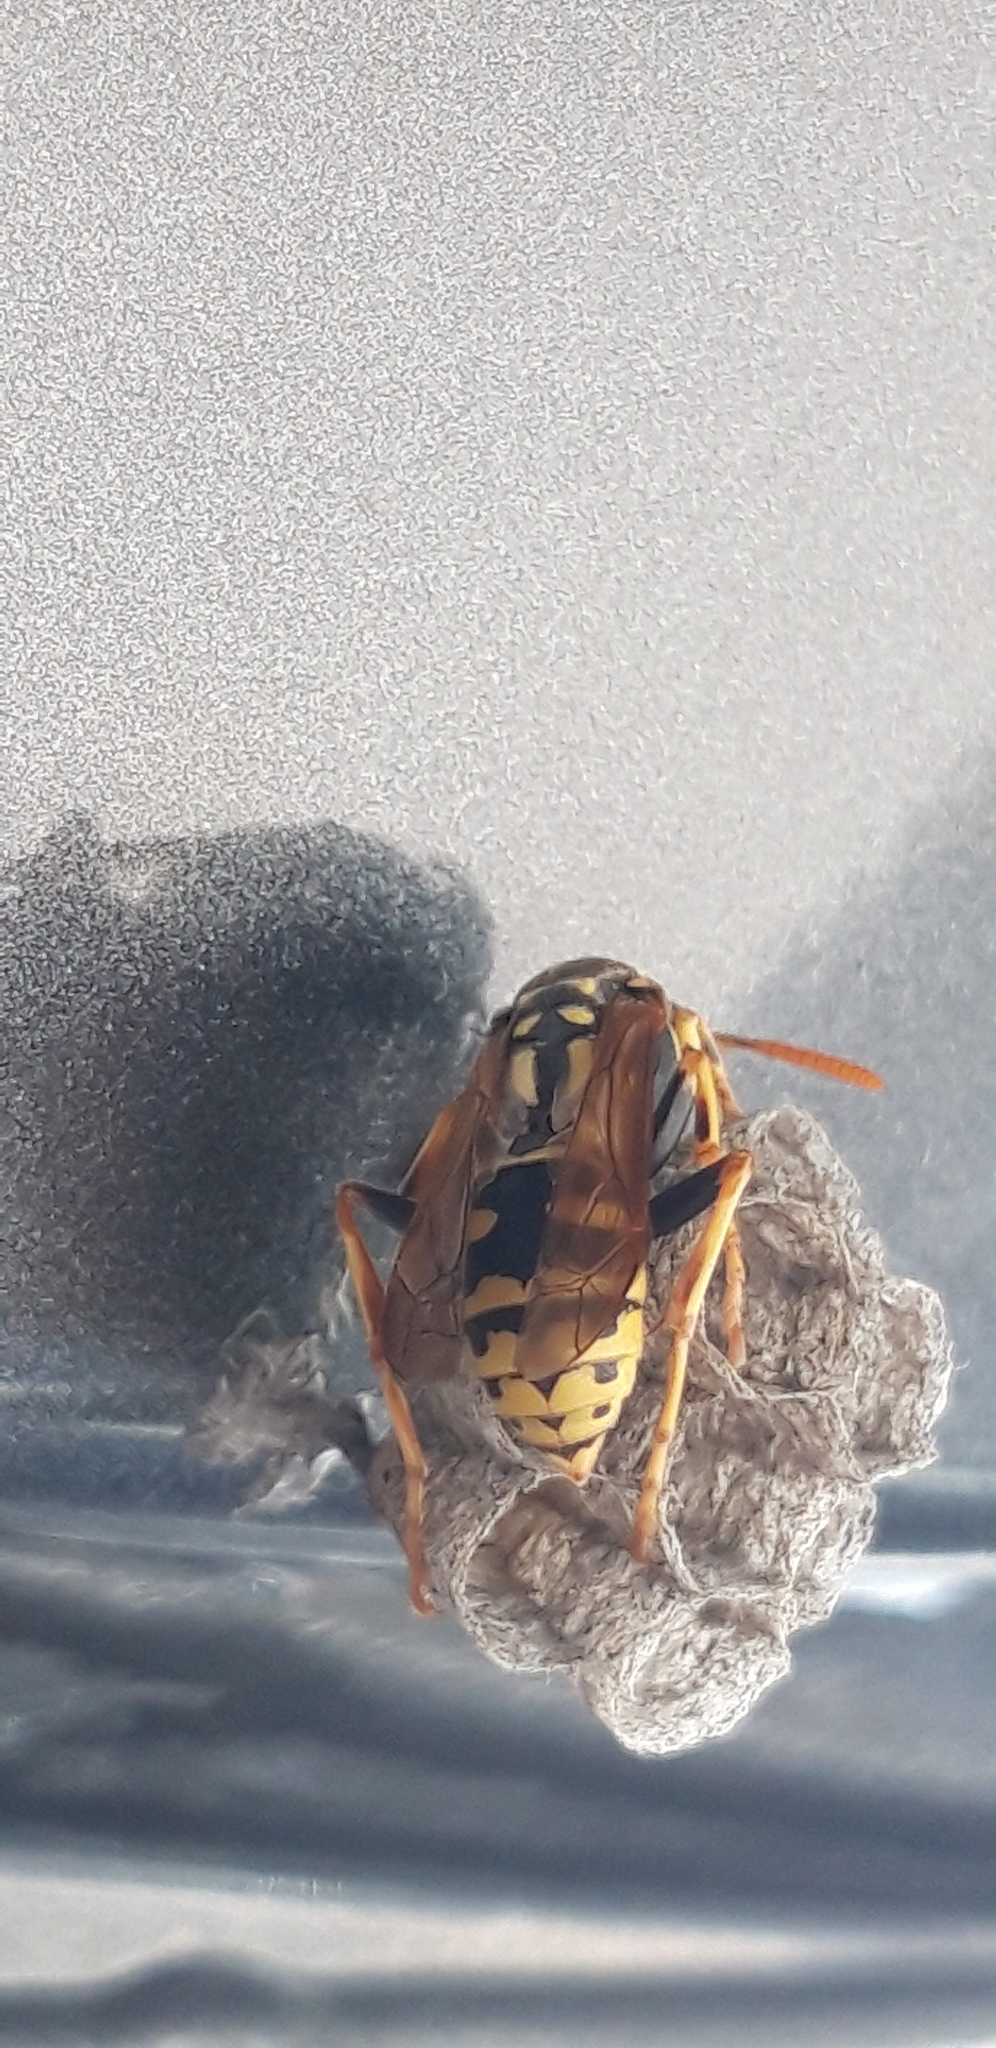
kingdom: Animalia
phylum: Arthropoda
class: Insecta
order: Hymenoptera
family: Eumenidae
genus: Polistes
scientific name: Polistes dominula
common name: Paper wasp
